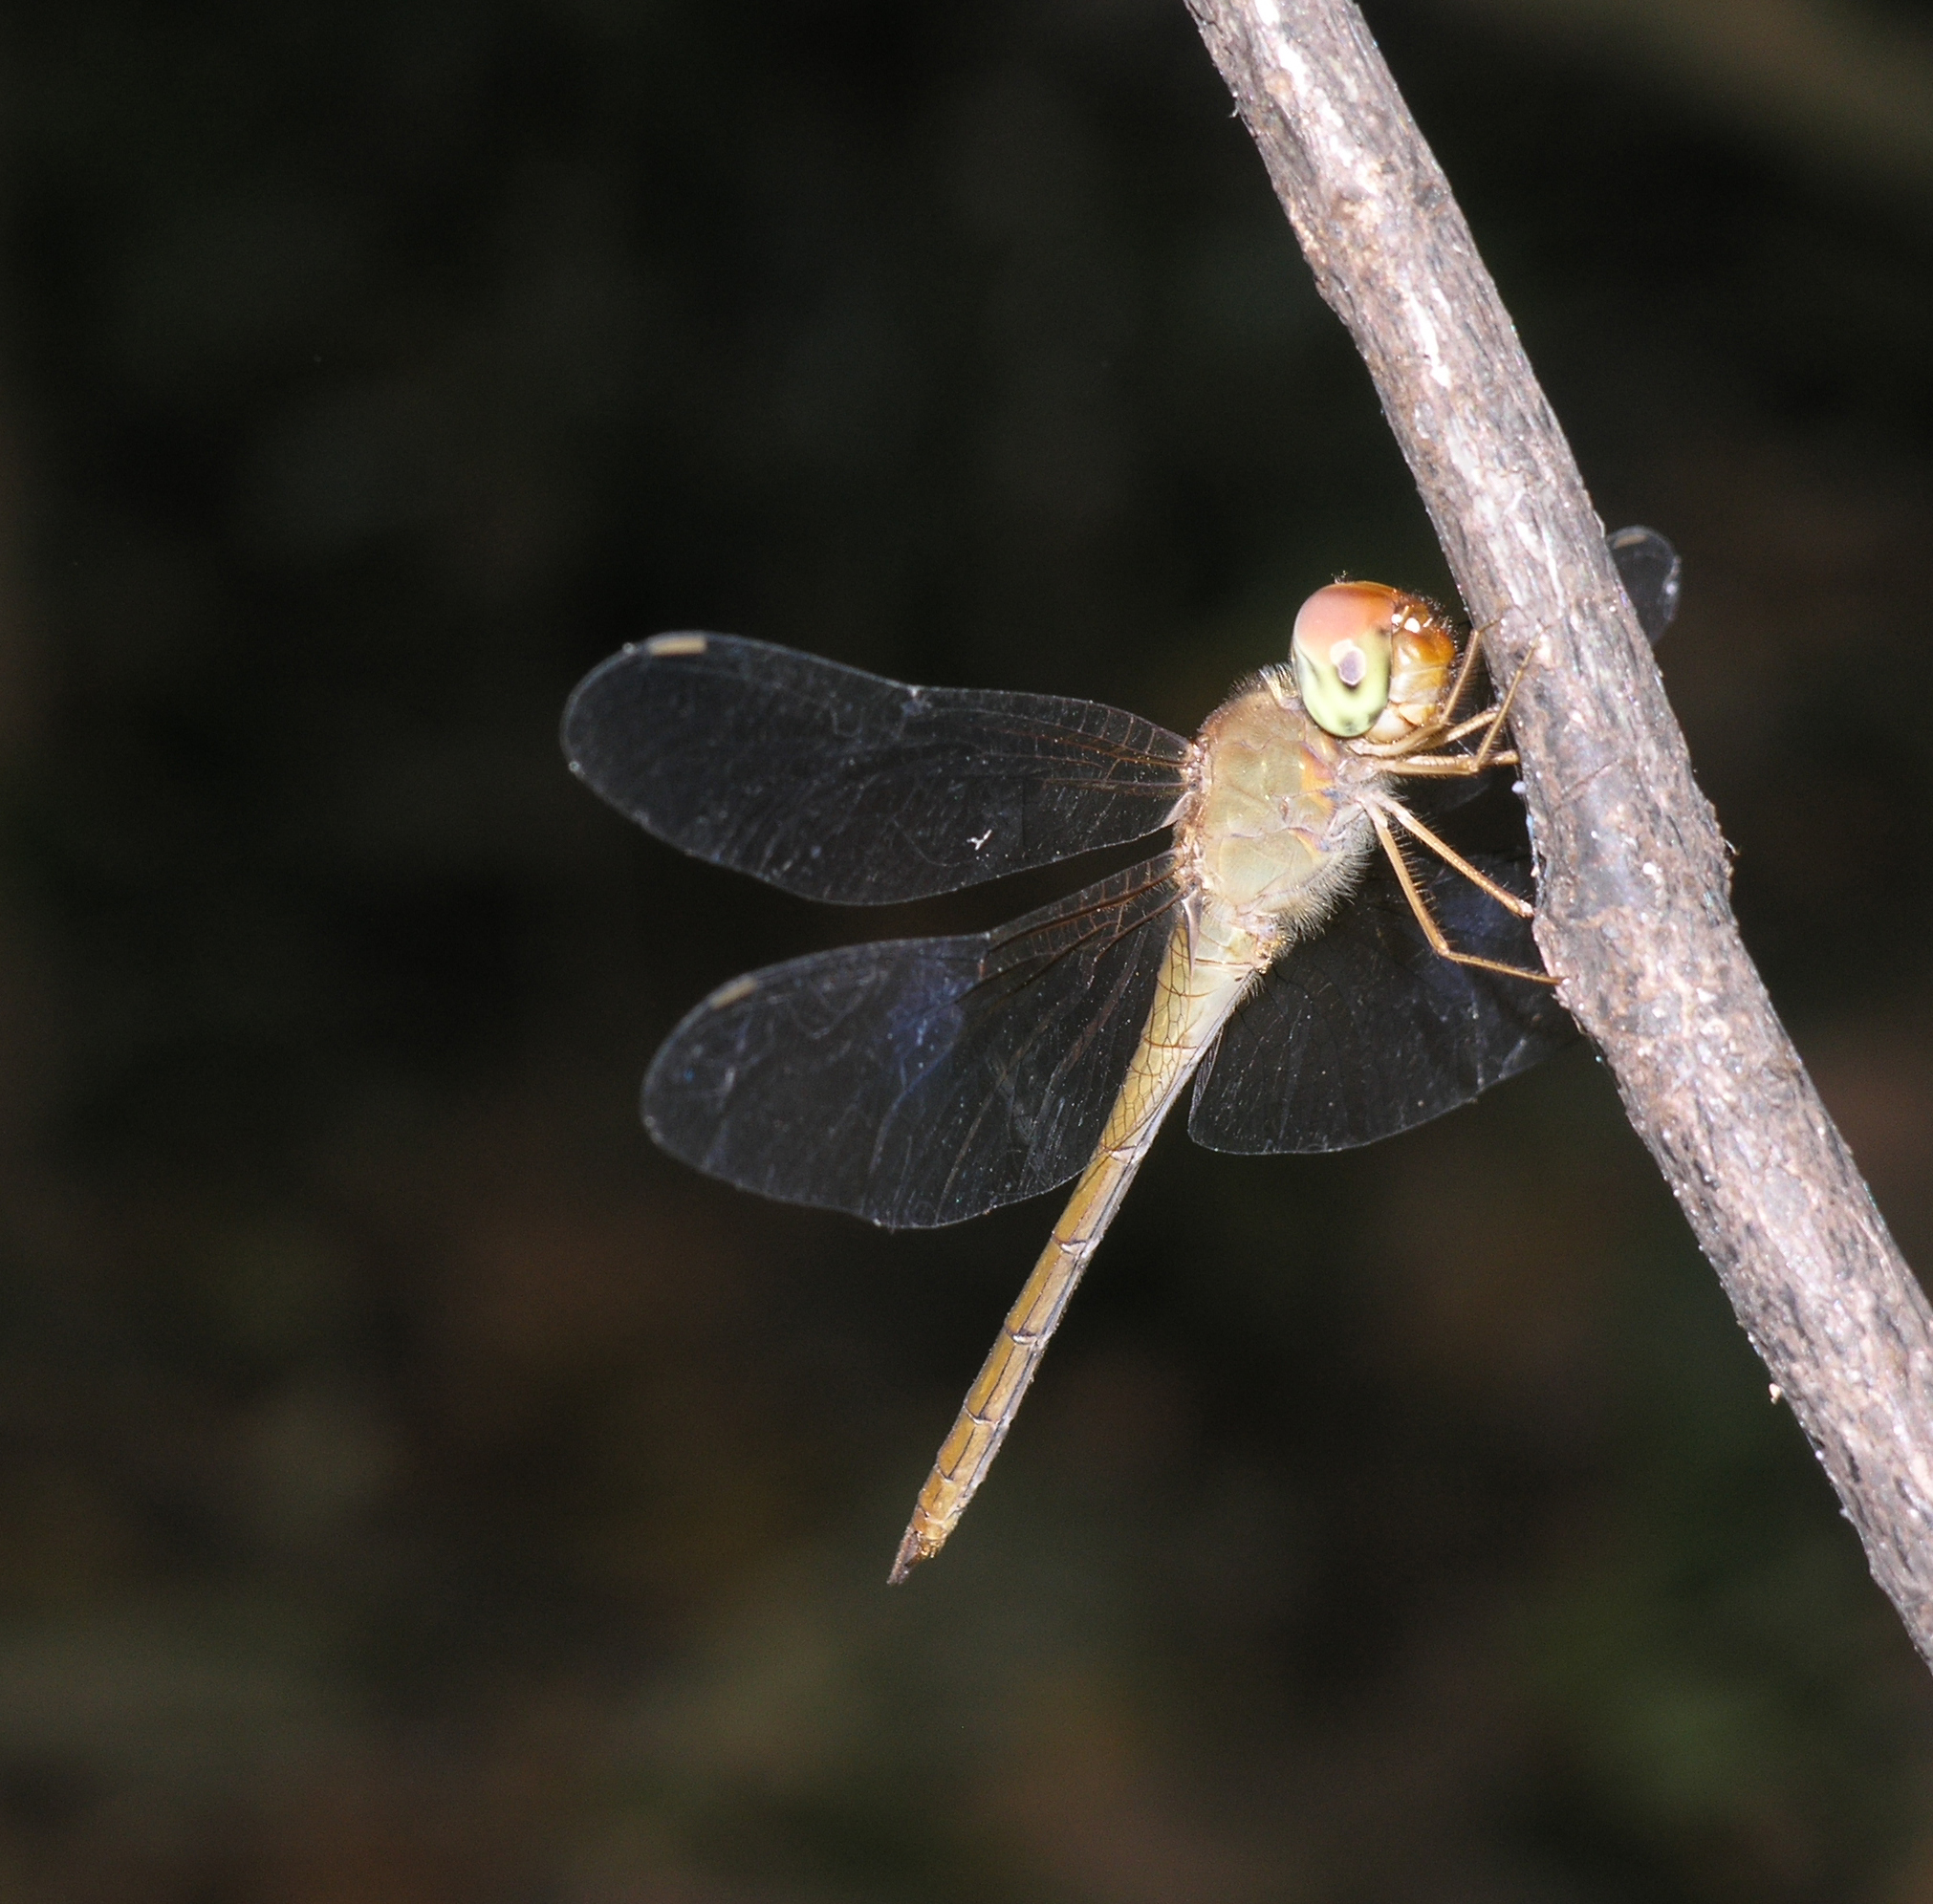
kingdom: Animalia
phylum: Arthropoda
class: Insecta
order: Odonata
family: Libellulidae
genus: Tholymis
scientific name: Tholymis tillarga
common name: Coral-tailed cloud wing
